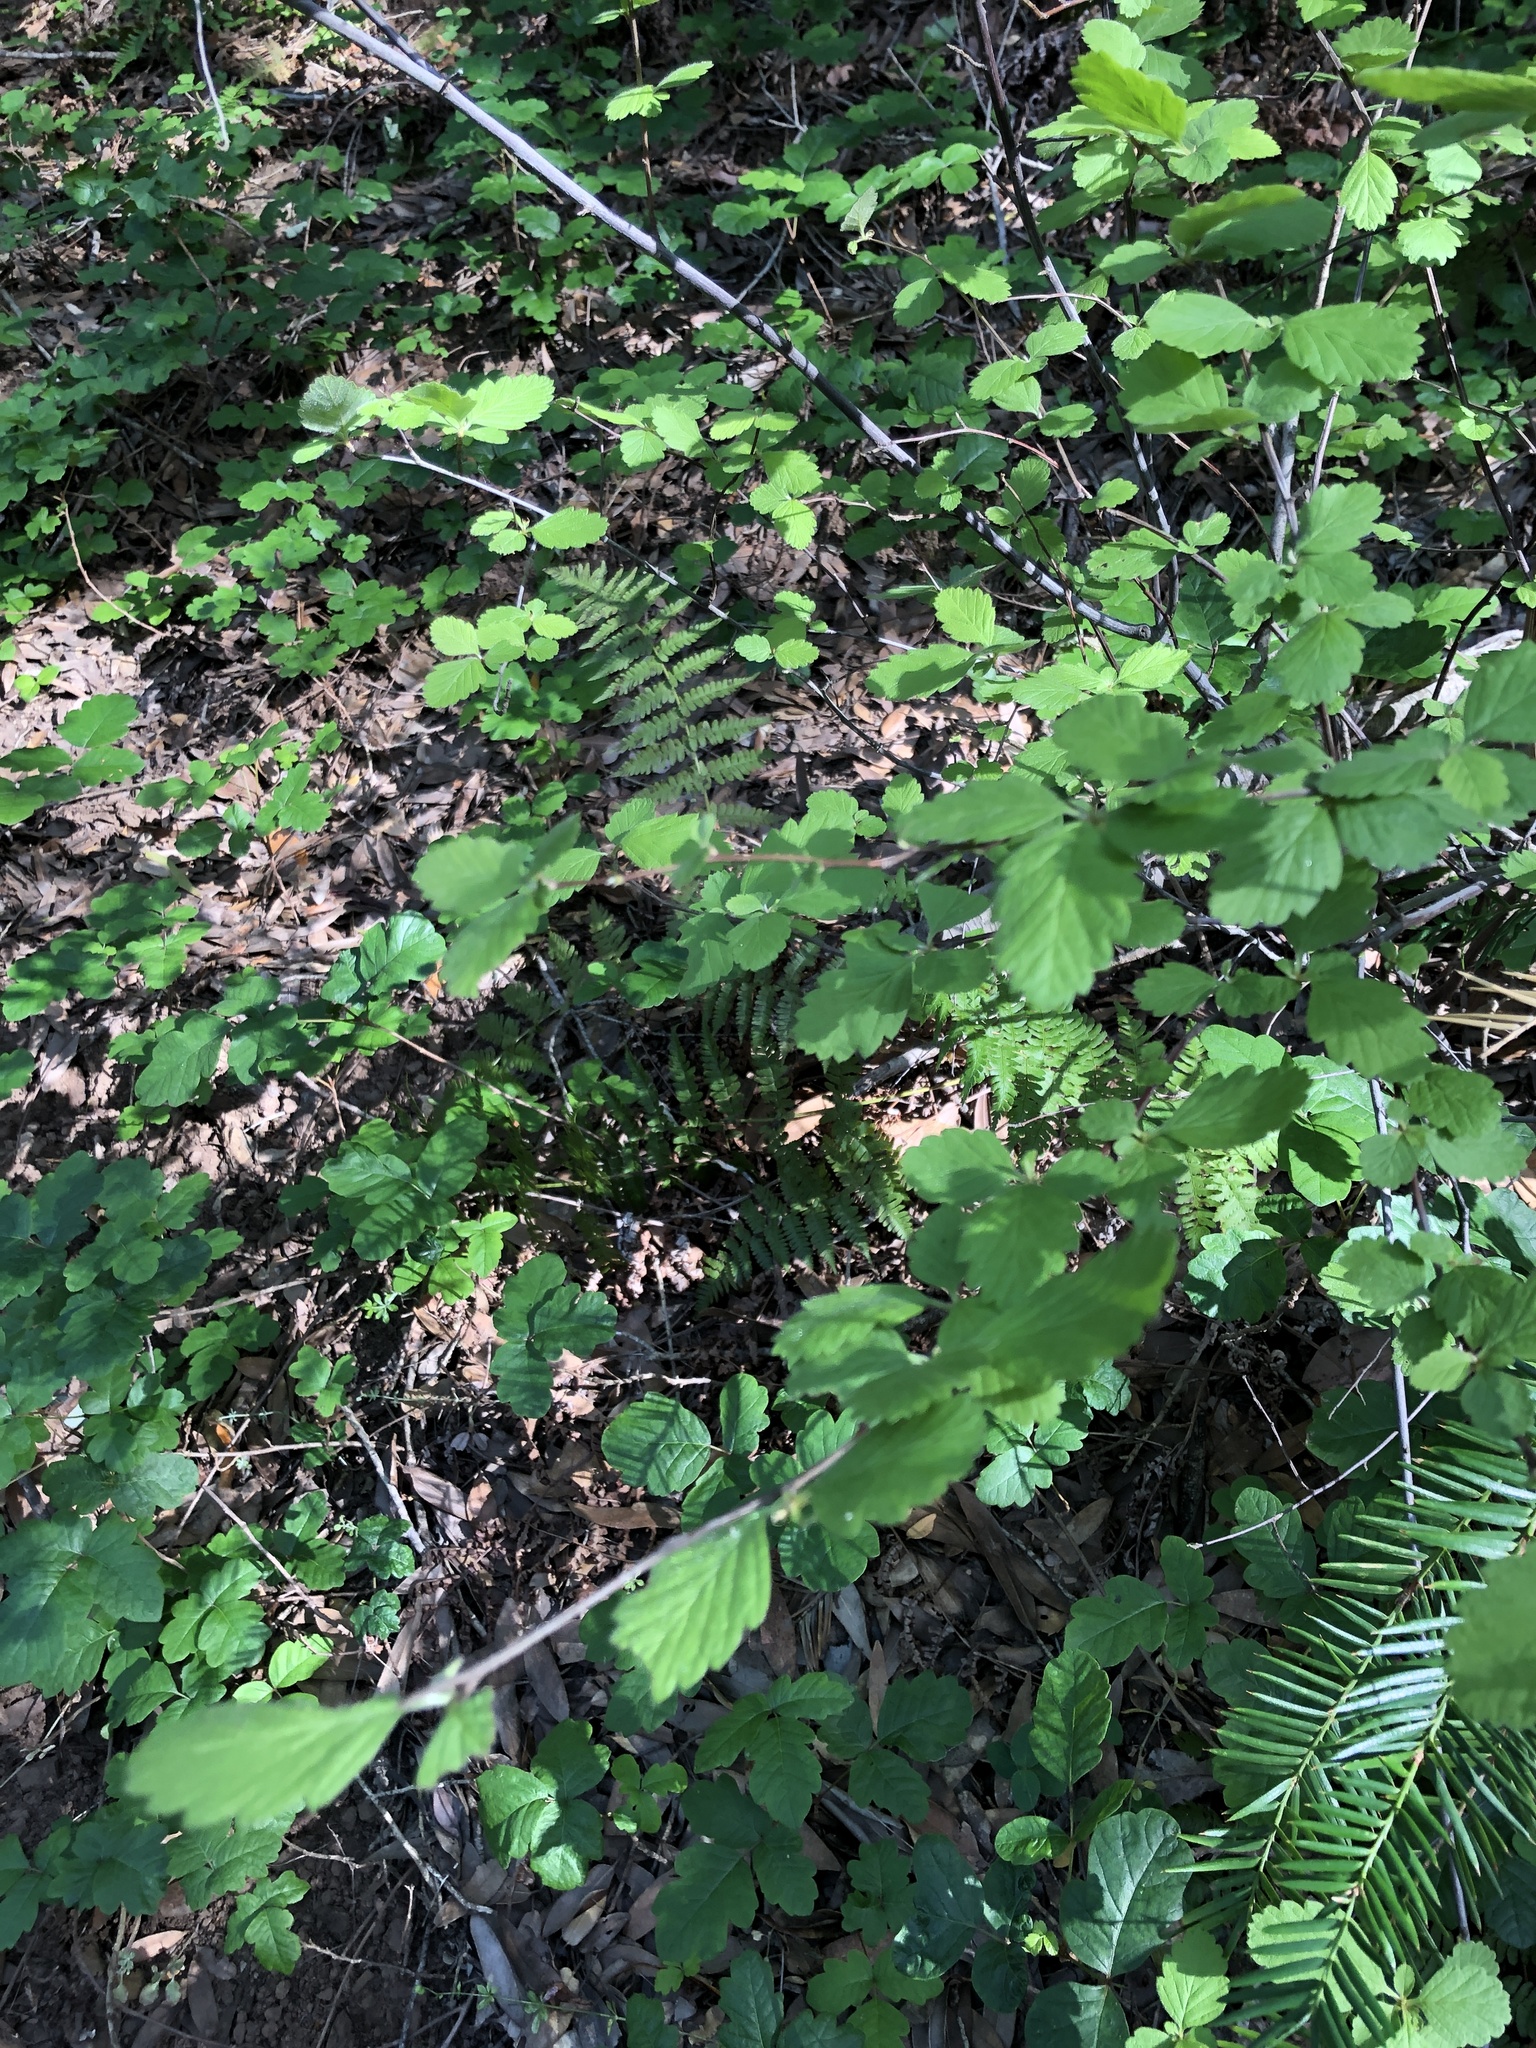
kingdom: Plantae
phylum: Tracheophyta
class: Magnoliopsida
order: Rosales
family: Rosaceae
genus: Holodiscus
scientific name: Holodiscus discolor
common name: Oceanspray
